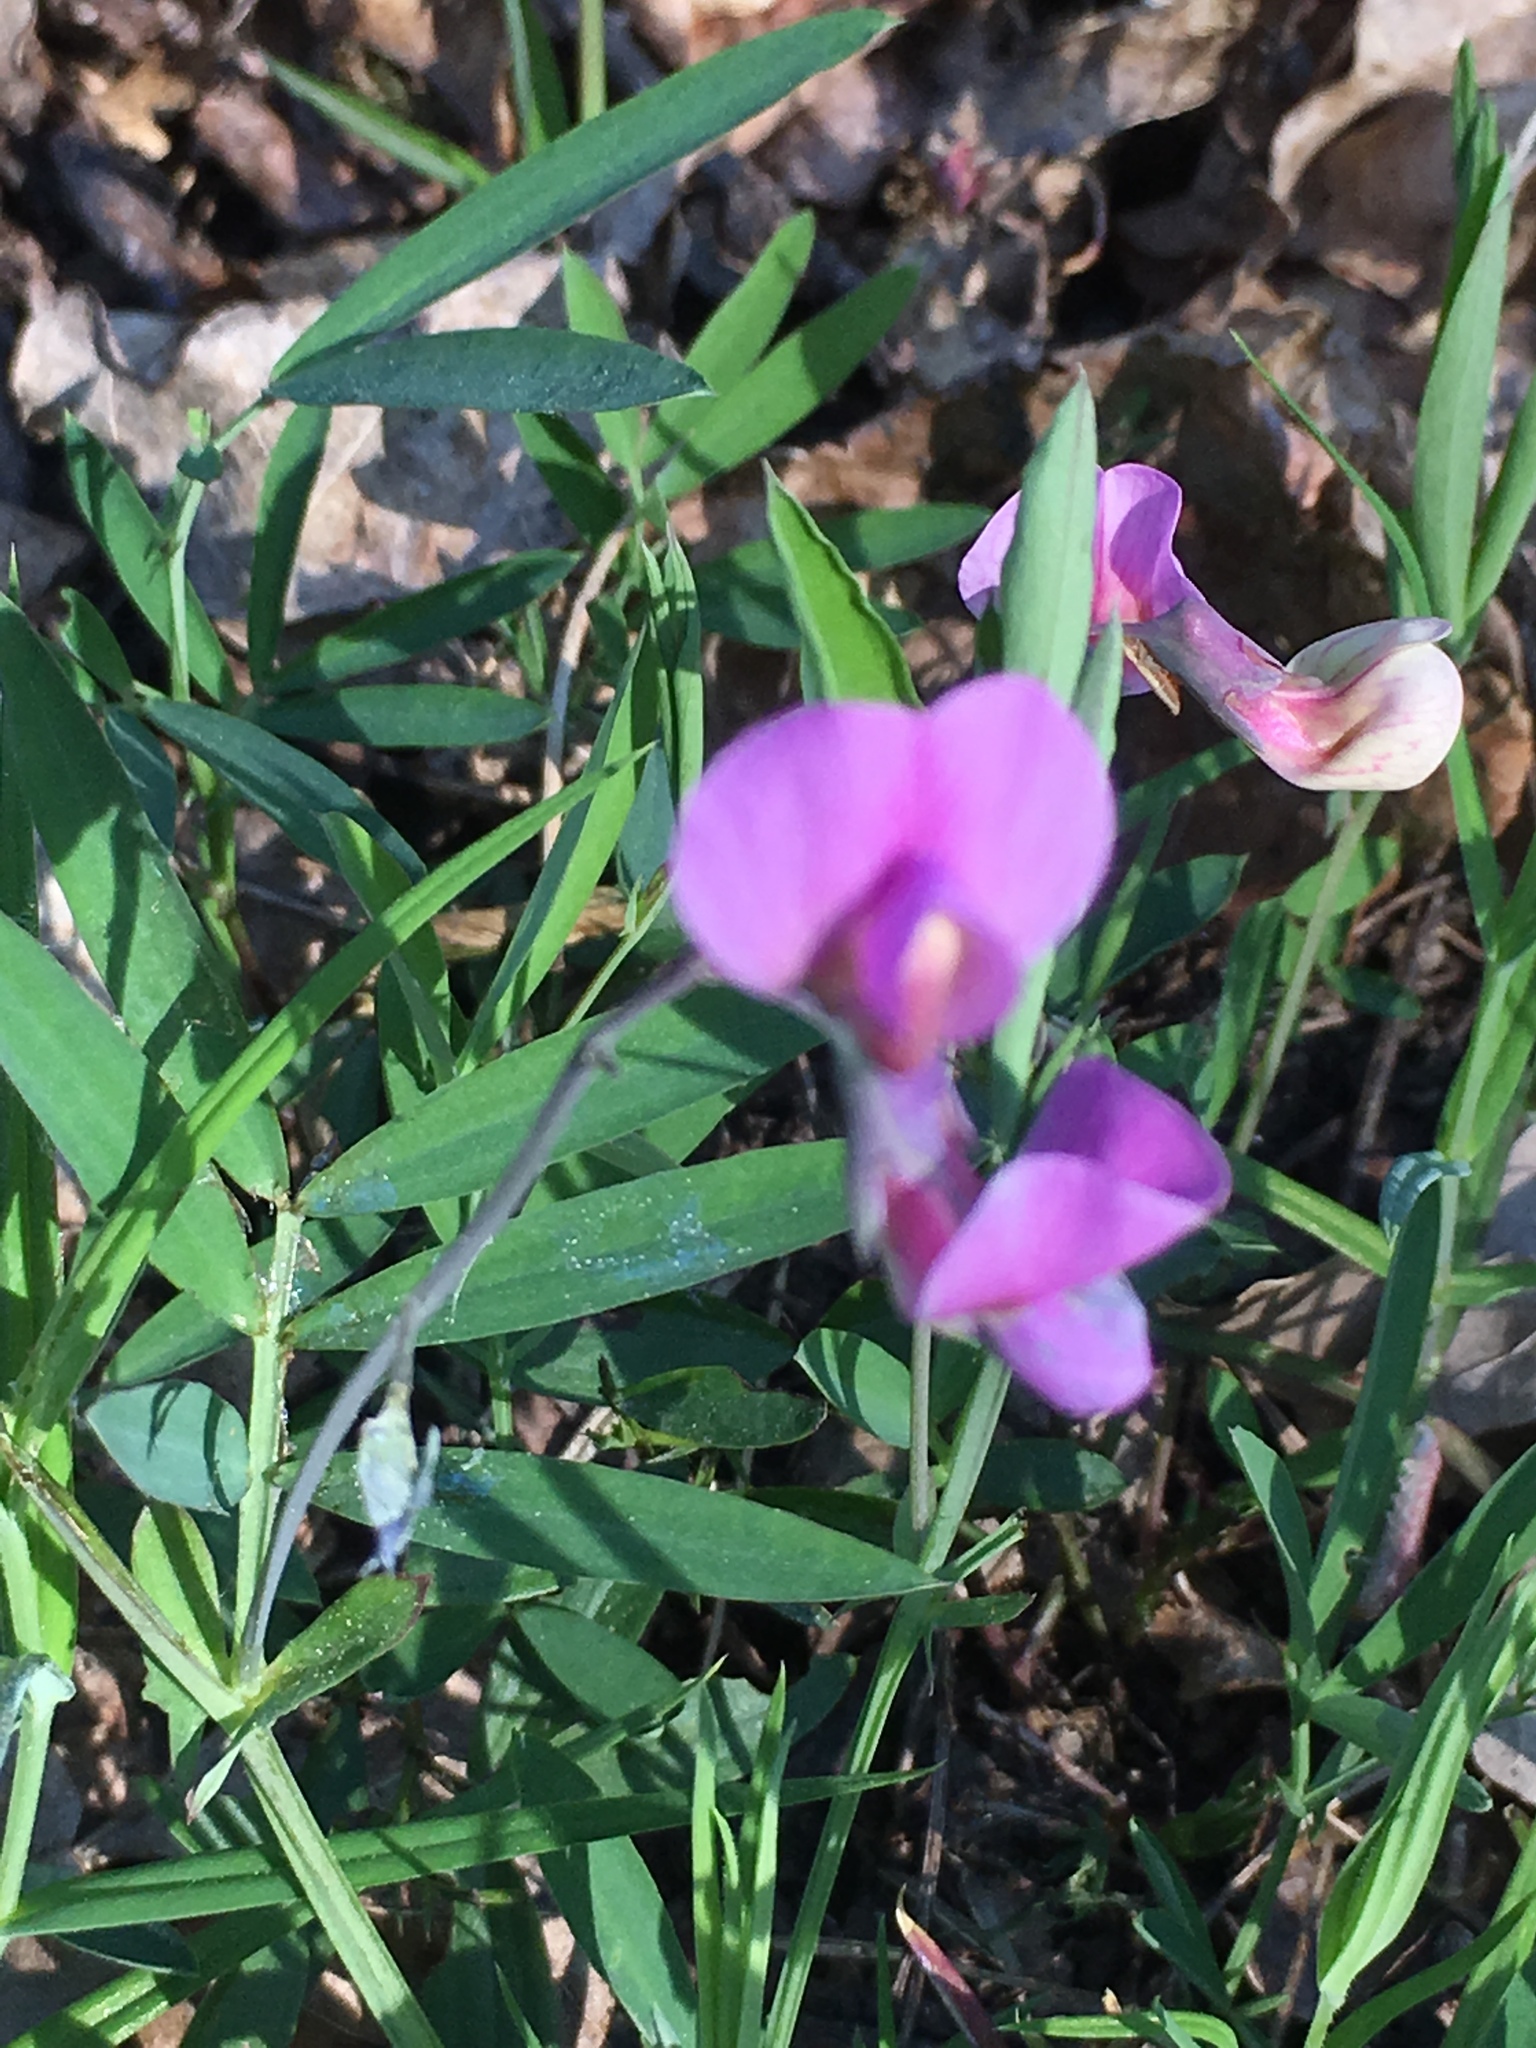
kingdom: Plantae
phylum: Tracheophyta
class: Magnoliopsida
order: Fabales
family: Fabaceae
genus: Lathyrus
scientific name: Lathyrus linifolius
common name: Bitter-vetch
